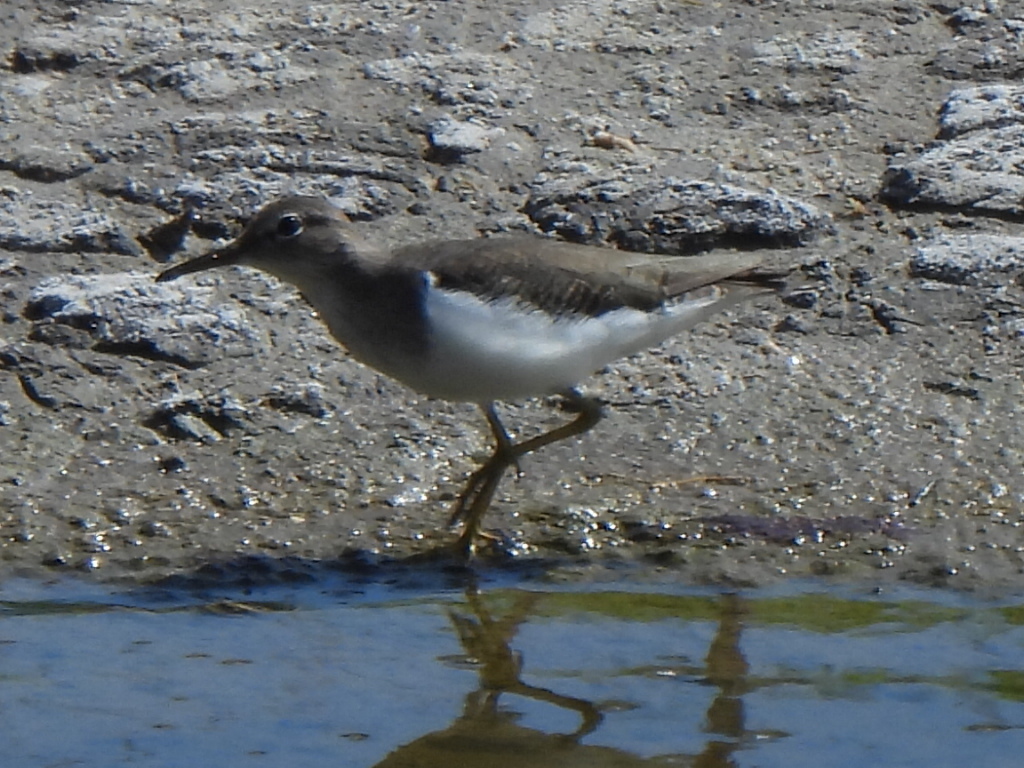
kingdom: Animalia
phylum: Chordata
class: Aves
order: Charadriiformes
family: Scolopacidae
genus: Actitis
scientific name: Actitis macularius
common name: Spotted sandpiper
